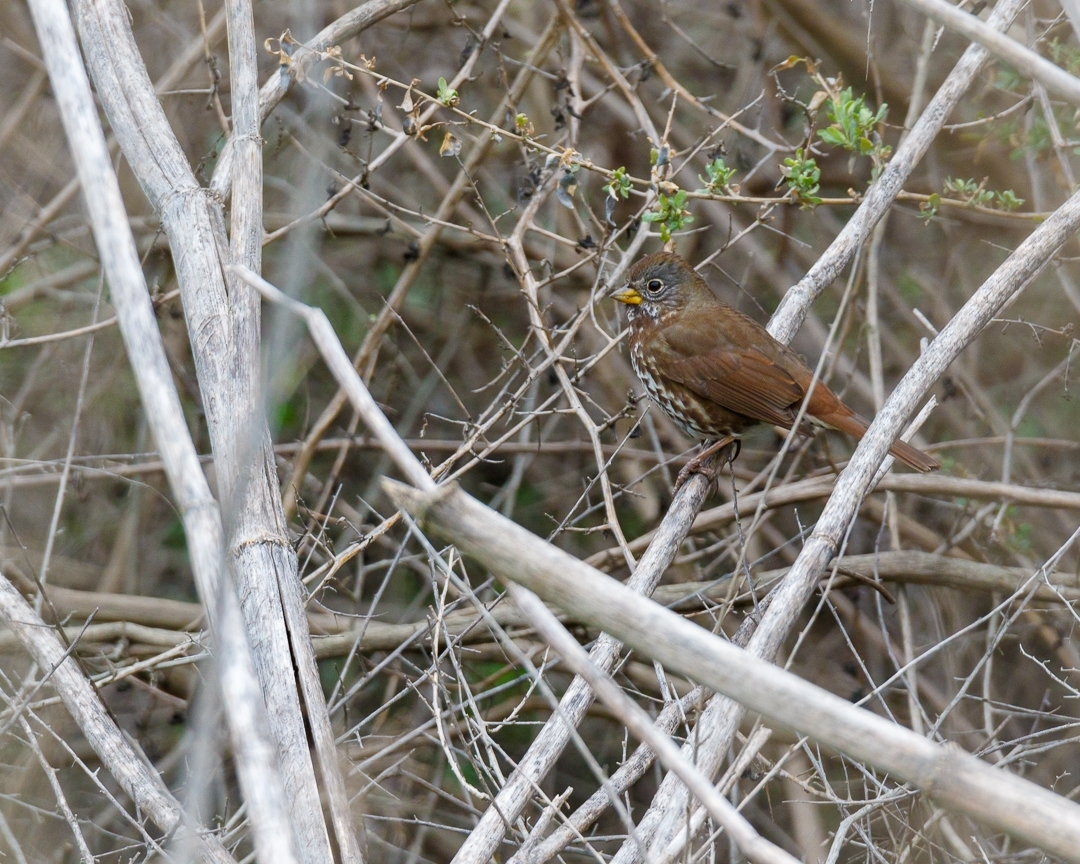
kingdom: Animalia
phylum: Chordata
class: Aves
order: Passeriformes
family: Passerellidae
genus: Passerella
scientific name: Passerella iliaca
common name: Fox sparrow
